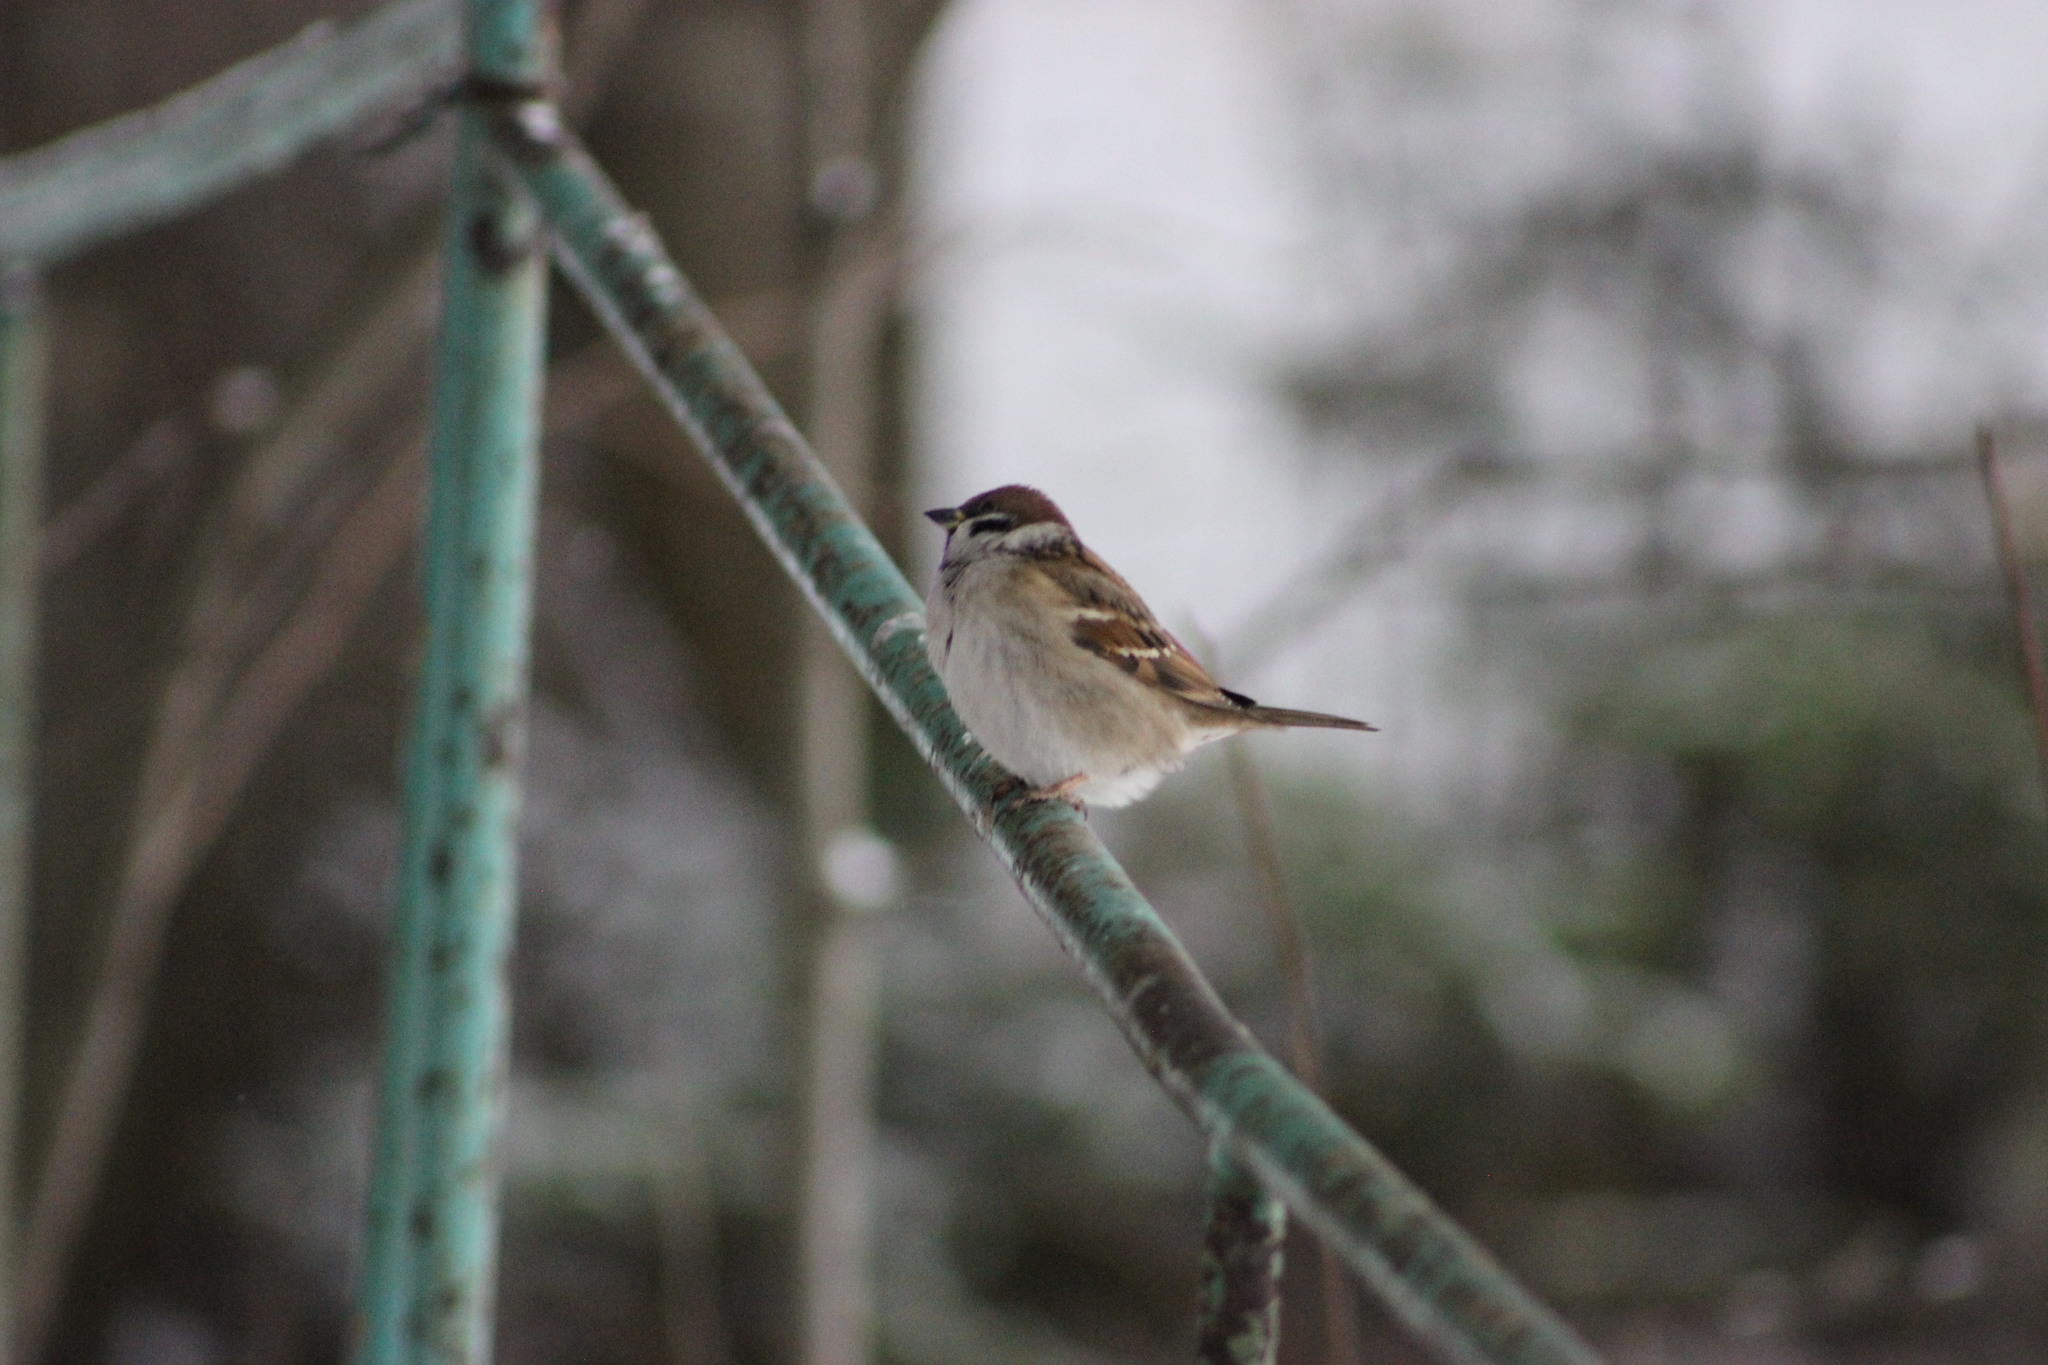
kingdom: Animalia
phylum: Chordata
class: Aves
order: Passeriformes
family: Passeridae
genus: Passer
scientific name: Passer montanus
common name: Eurasian tree sparrow
